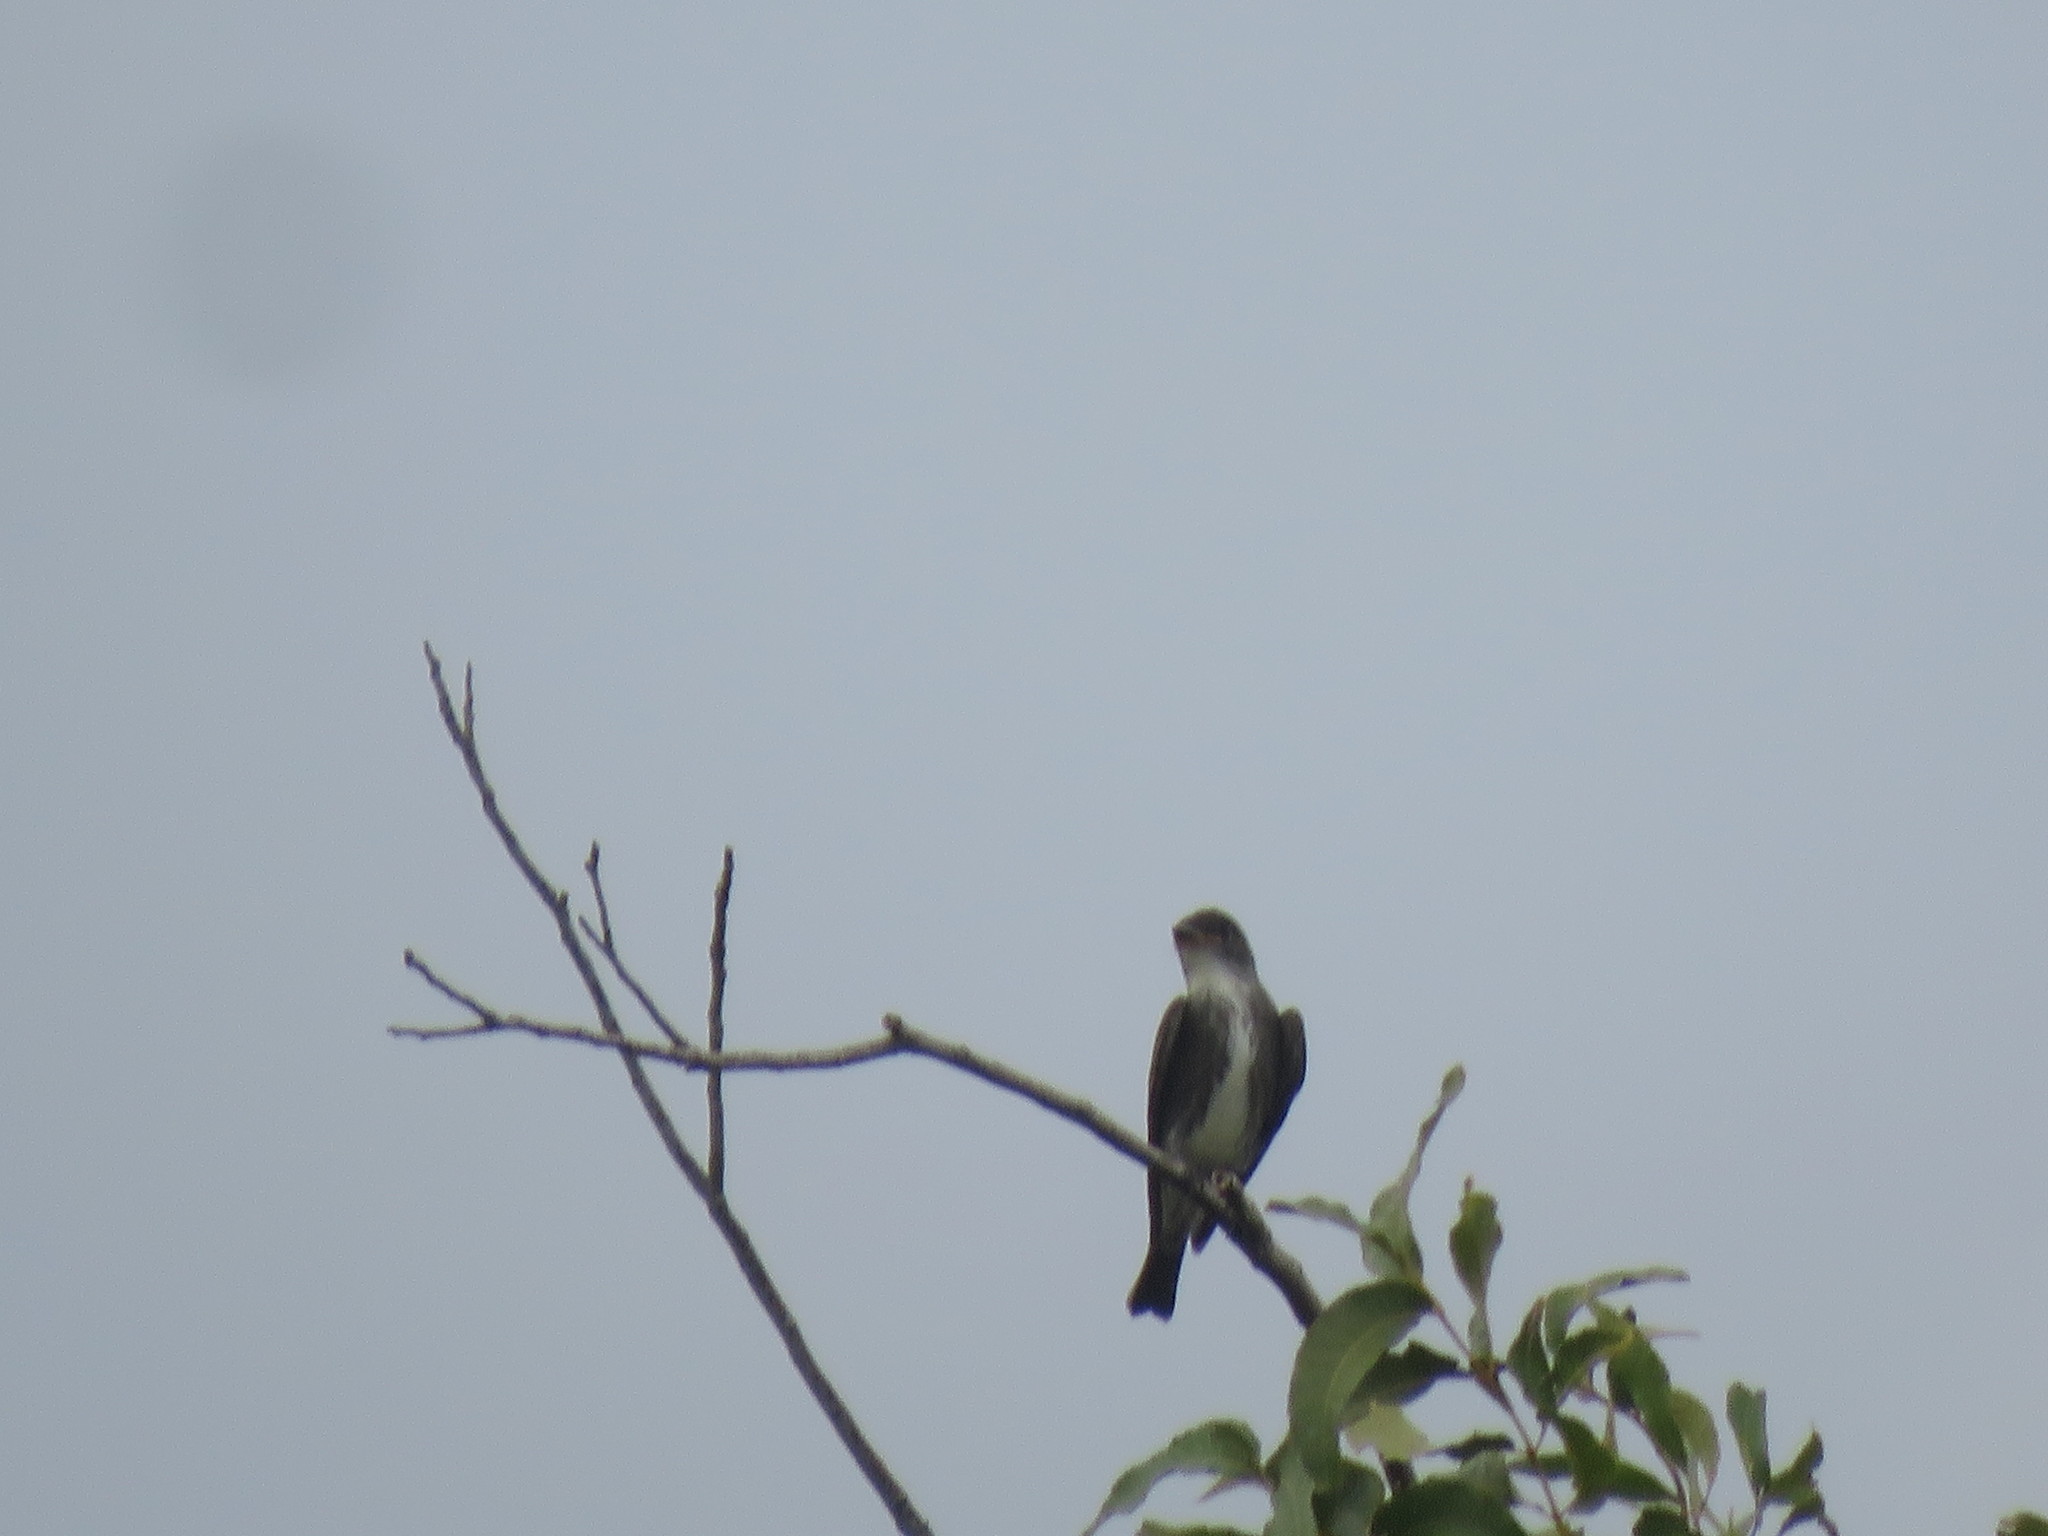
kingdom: Animalia
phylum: Chordata
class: Aves
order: Passeriformes
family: Tyrannidae
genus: Contopus
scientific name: Contopus cooperi
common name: Olive-sided flycatcher
